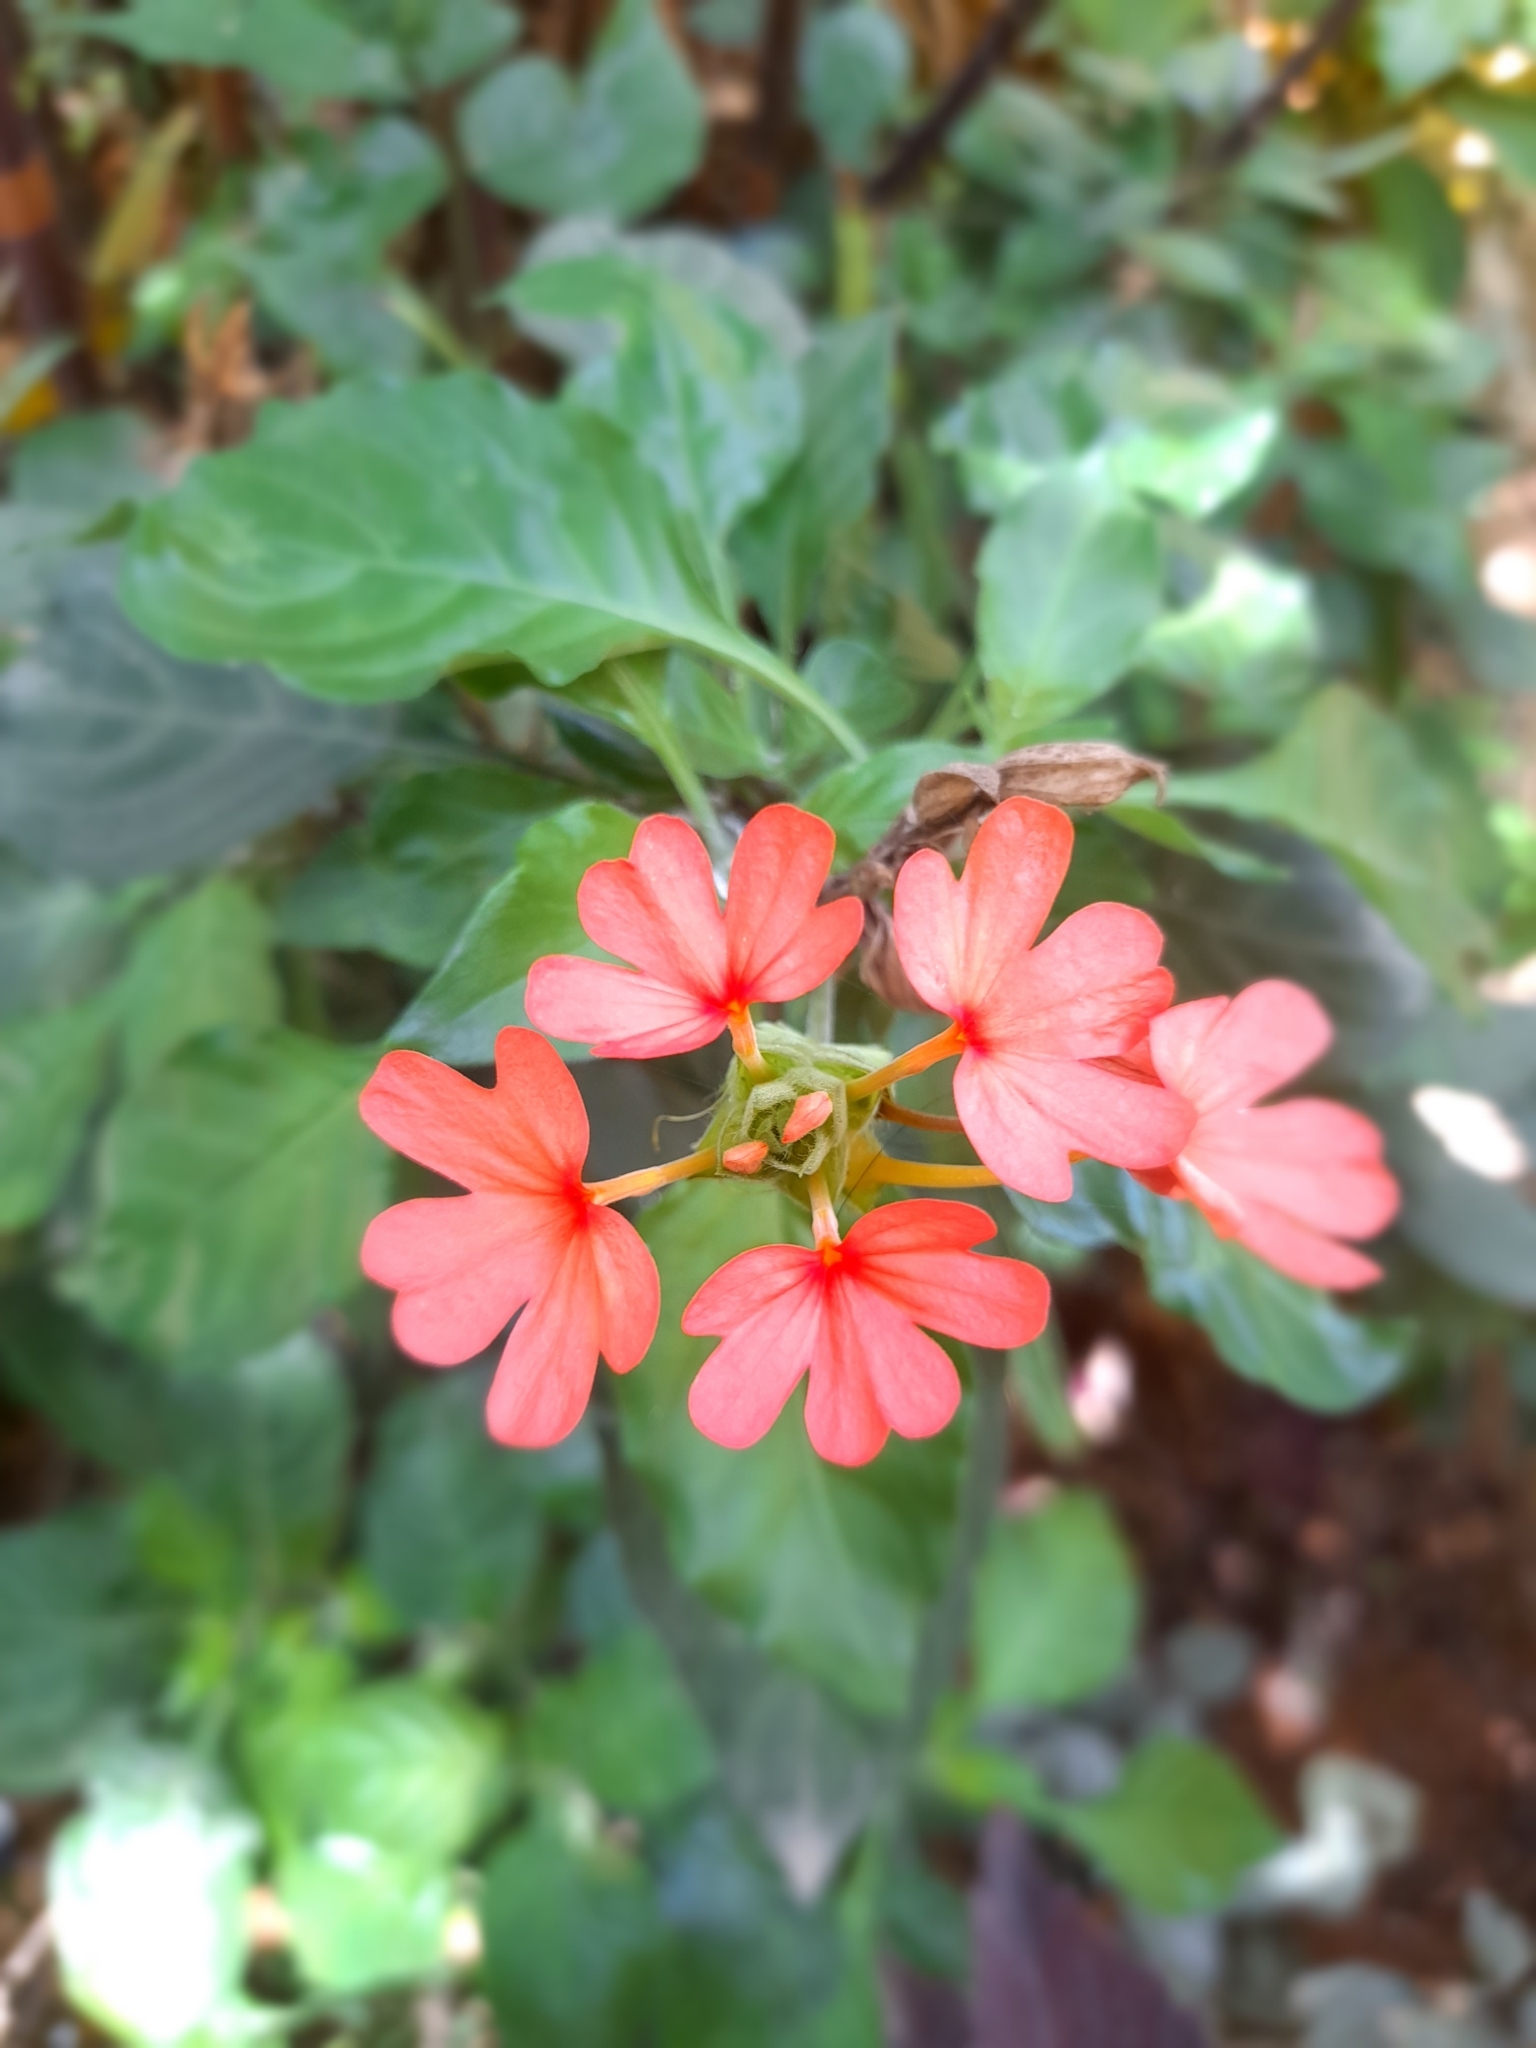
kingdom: Plantae
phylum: Tracheophyta
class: Magnoliopsida
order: Lamiales
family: Acanthaceae
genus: Crossandra
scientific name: Crossandra nilotica
